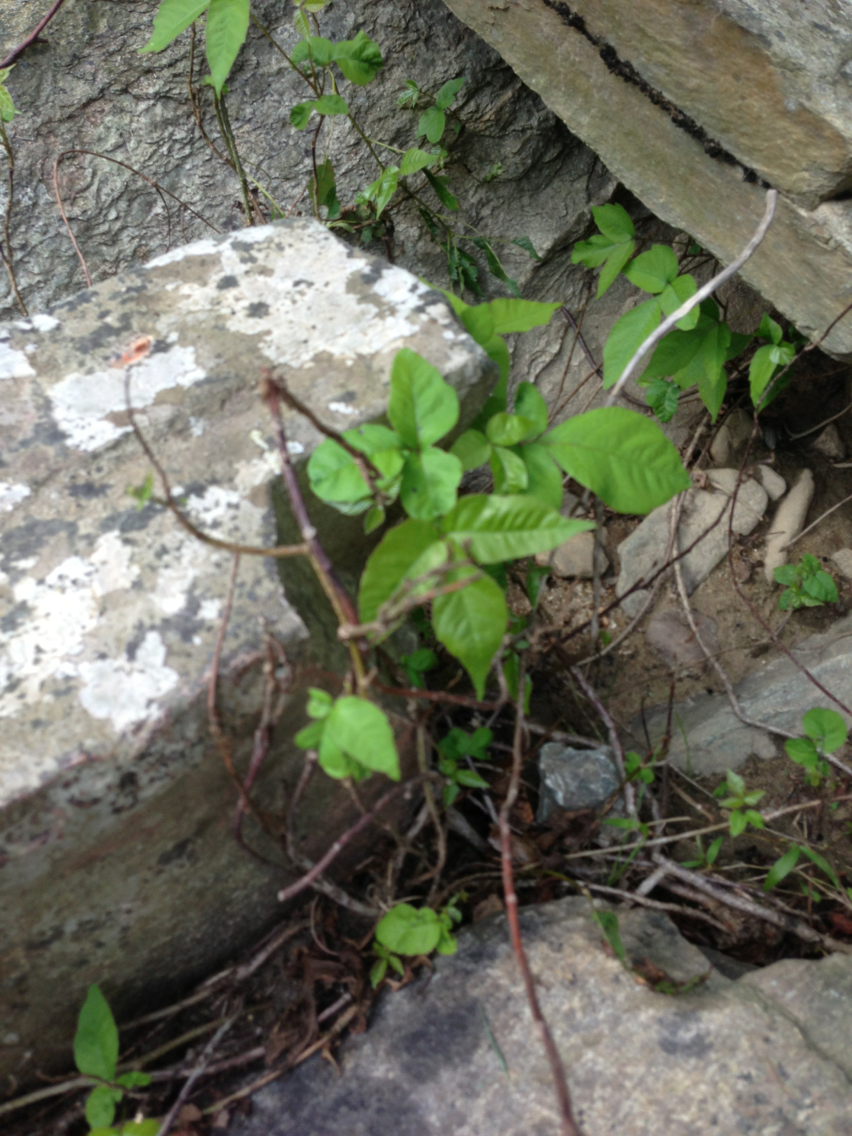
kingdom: Plantae
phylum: Tracheophyta
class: Magnoliopsida
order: Sapindales
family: Anacardiaceae
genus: Toxicodendron
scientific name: Toxicodendron radicans
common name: Poison ivy
